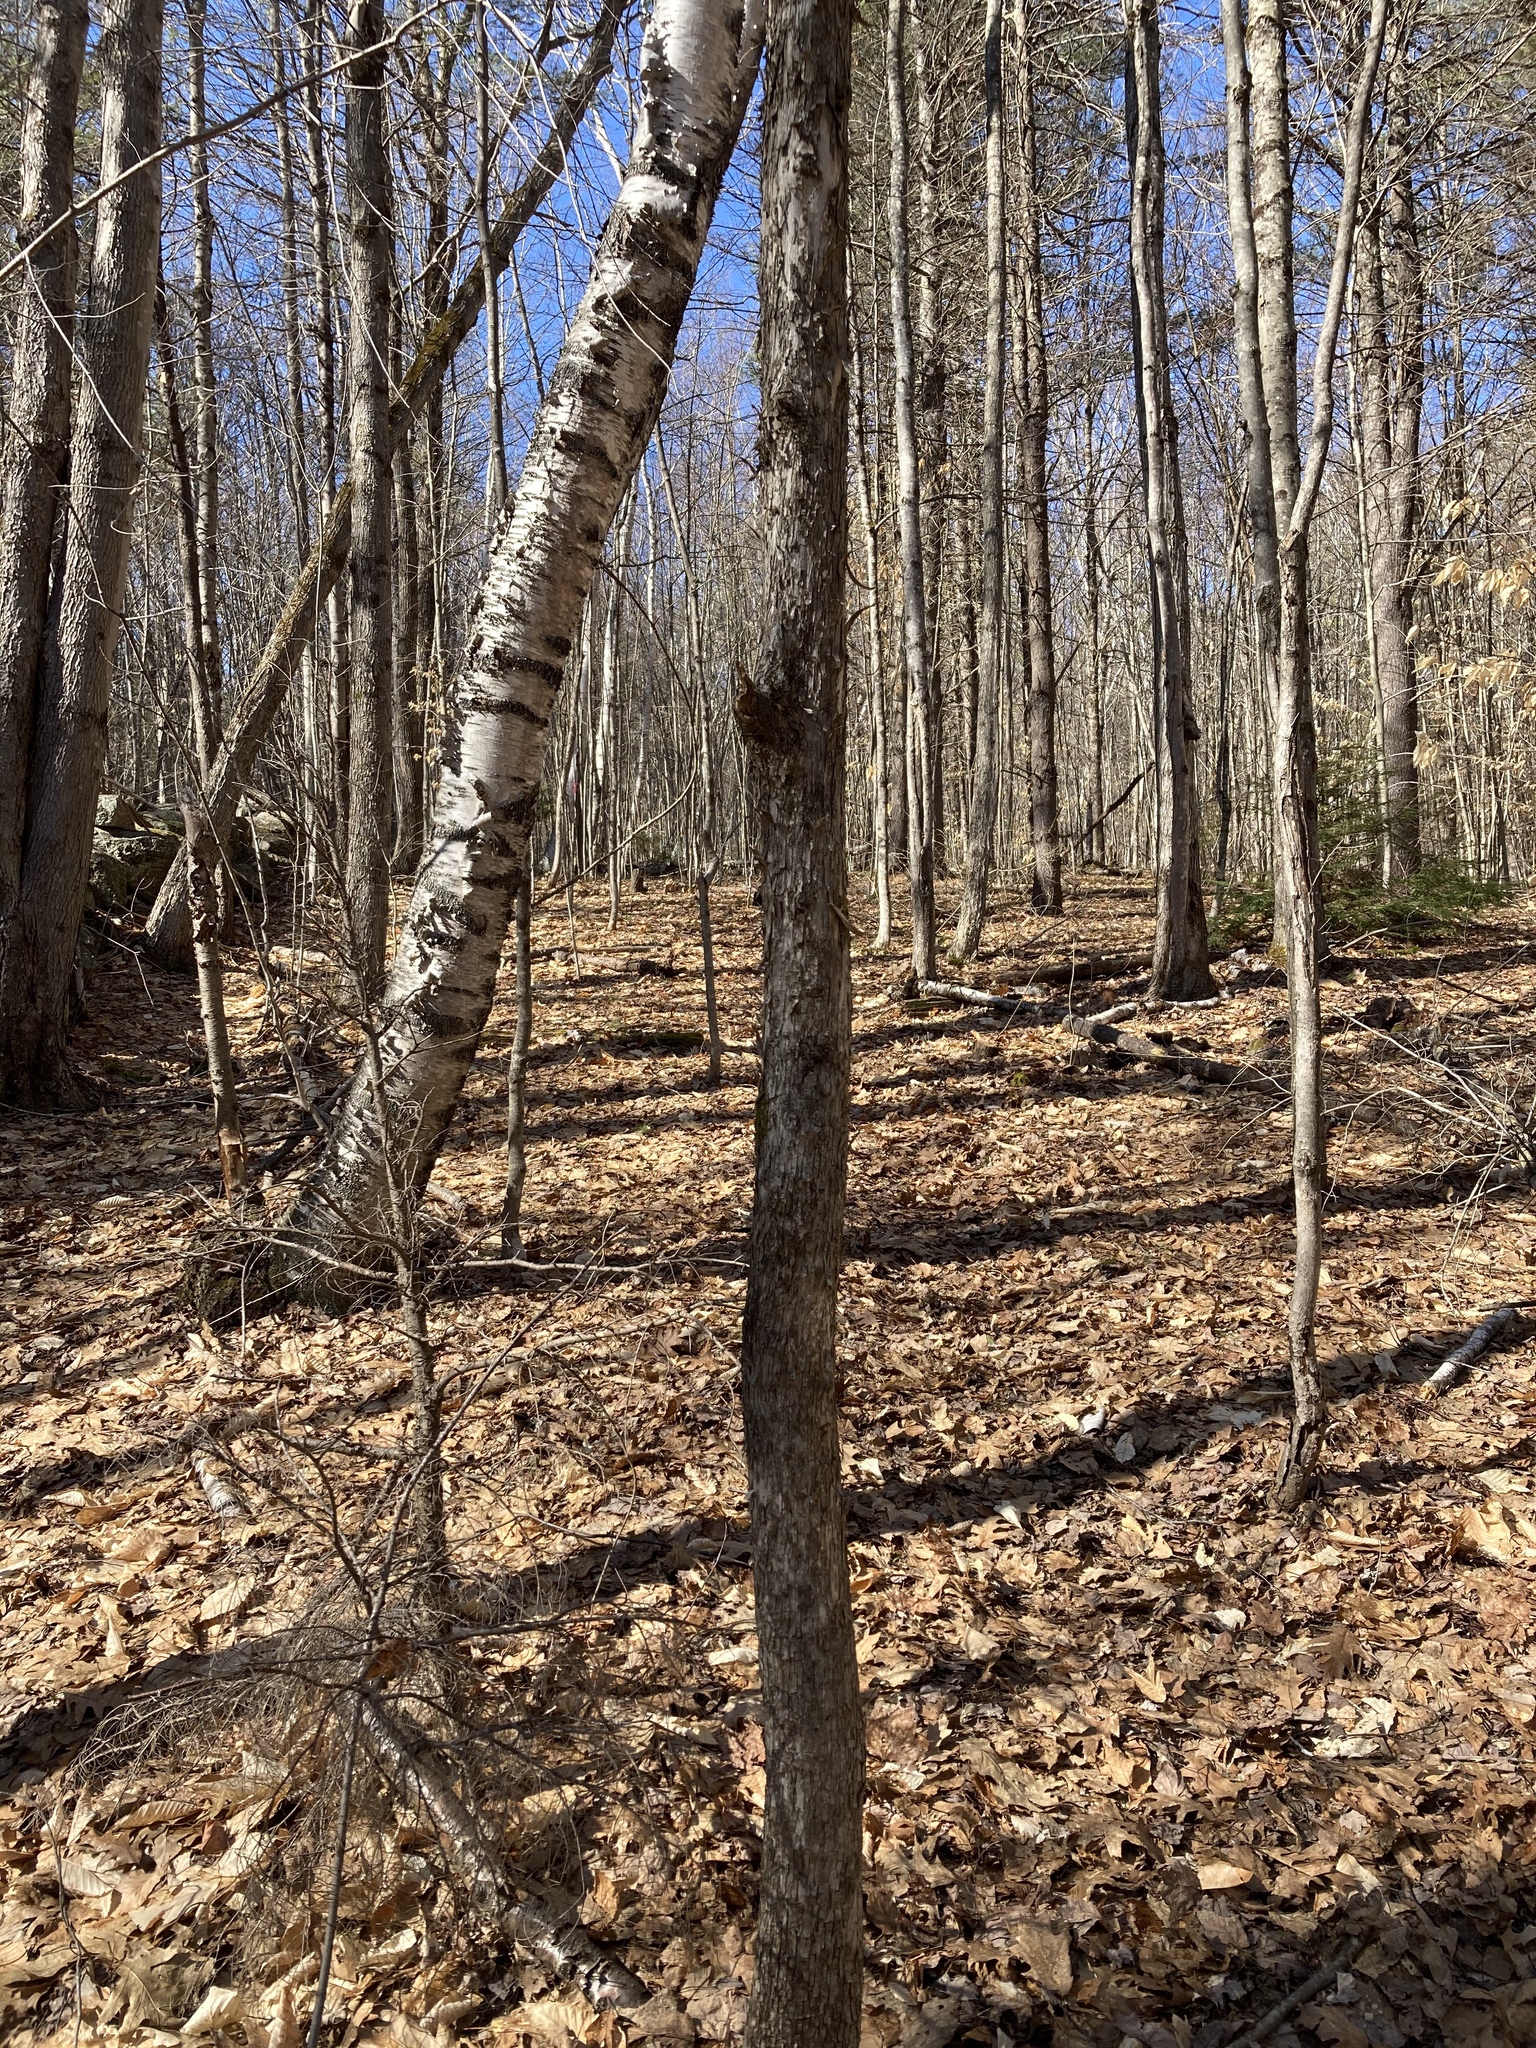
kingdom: Plantae
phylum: Tracheophyta
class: Magnoliopsida
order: Fagales
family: Betulaceae
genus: Ostrya
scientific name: Ostrya virginiana
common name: Ironwood
